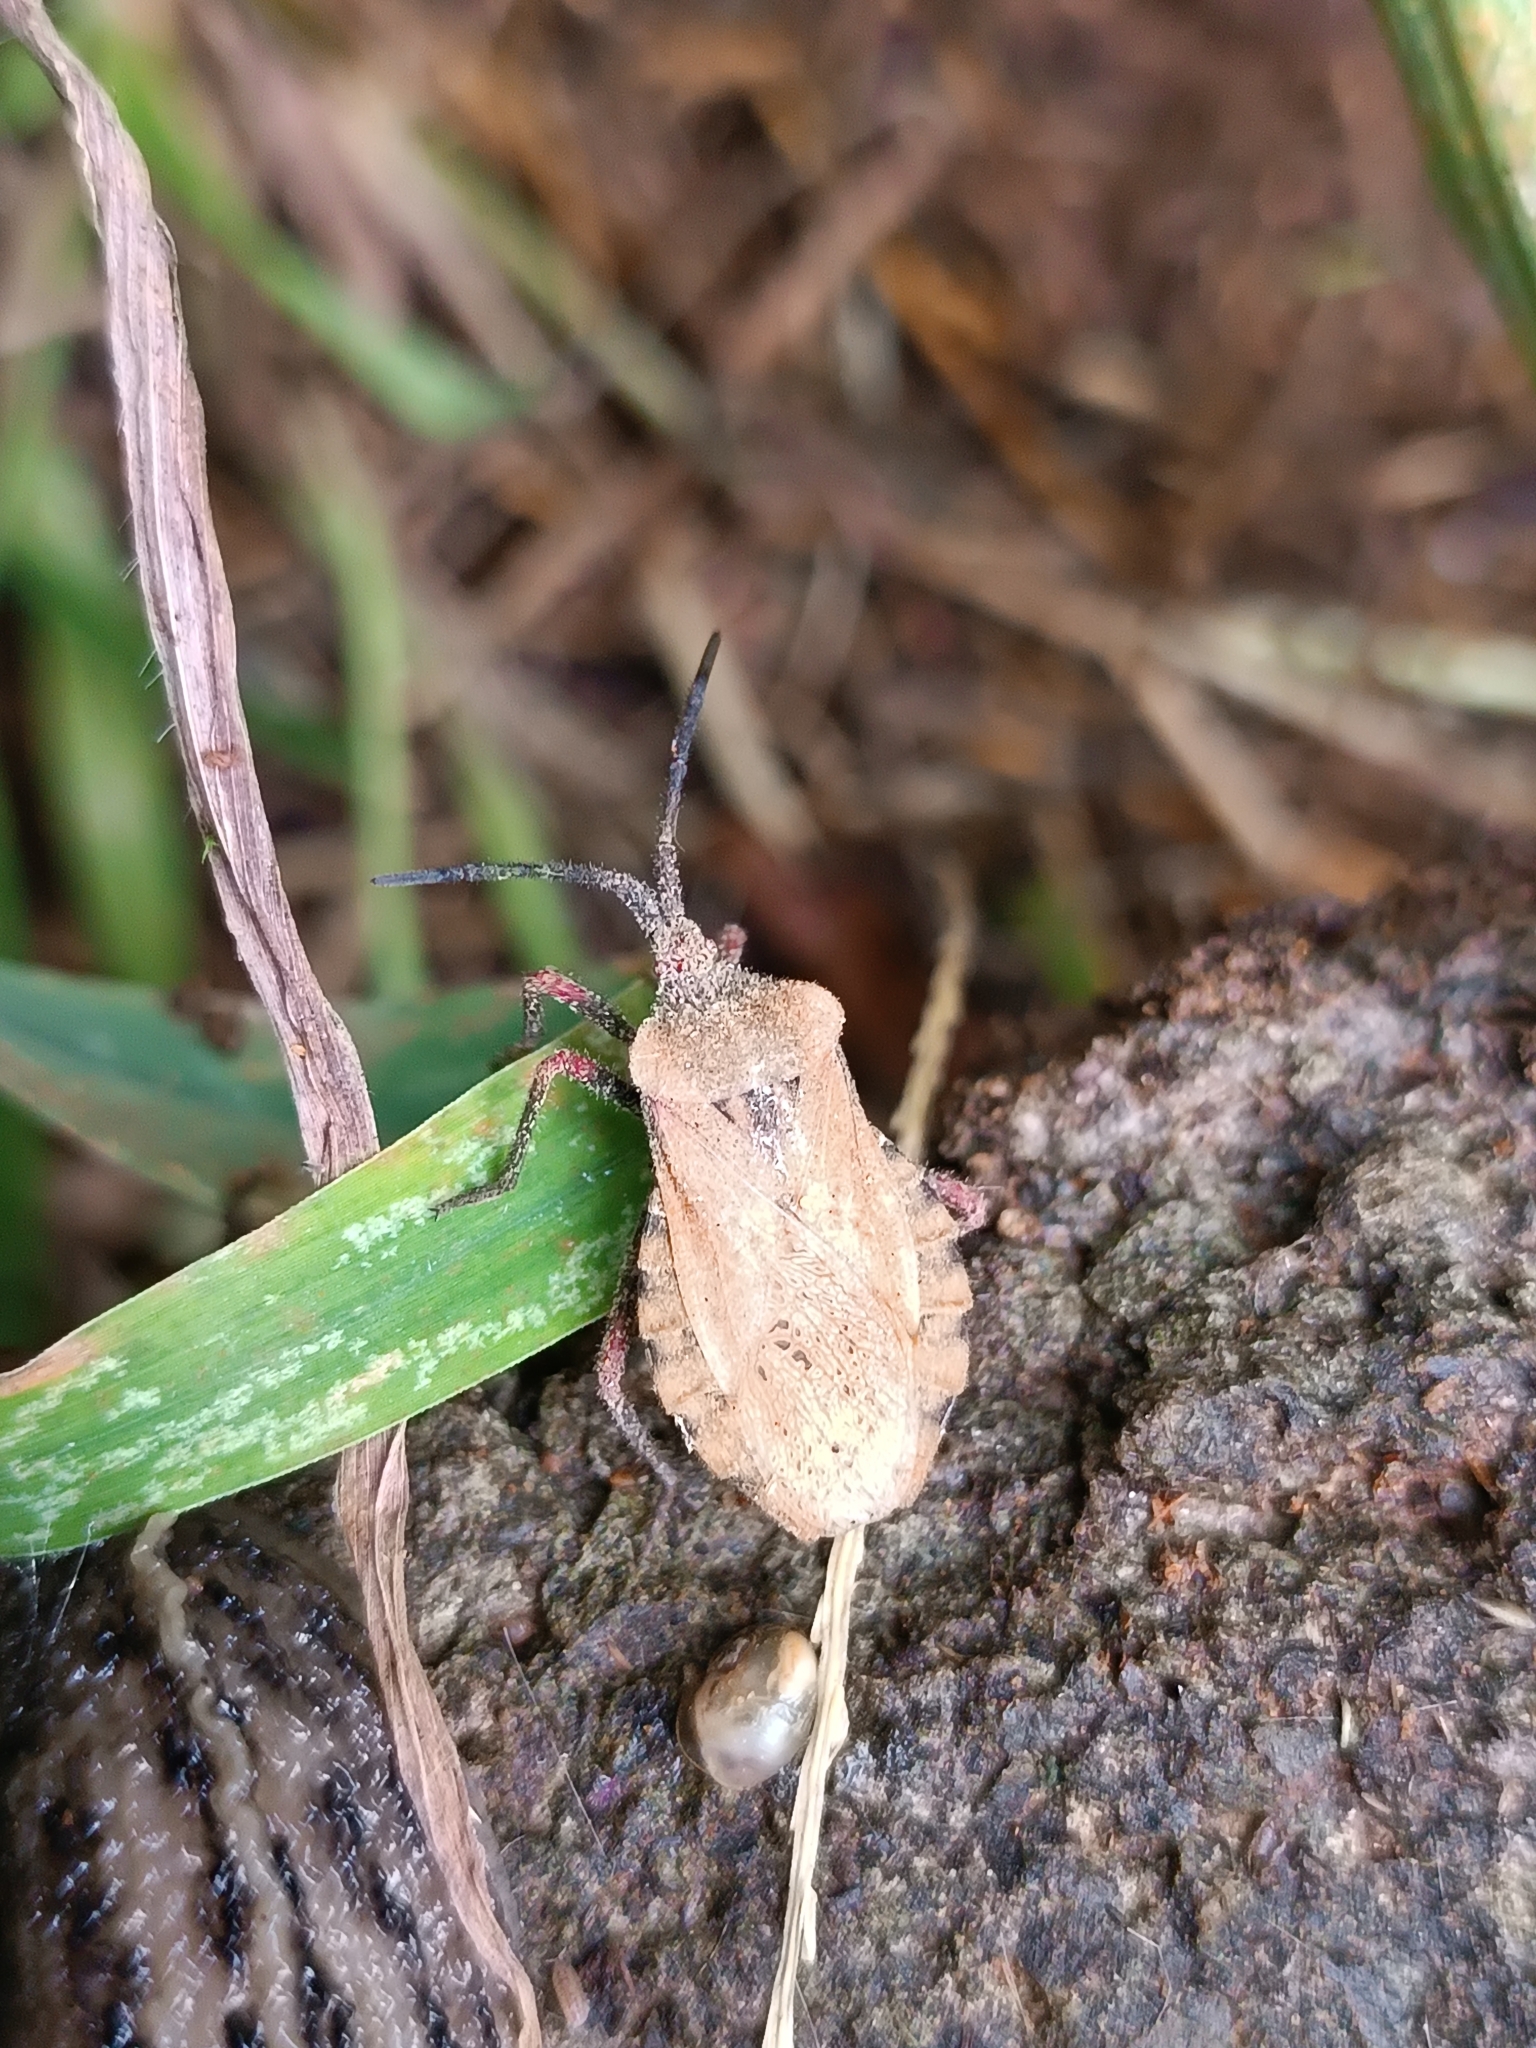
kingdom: Animalia
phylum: Arthropoda
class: Insecta
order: Hemiptera
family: Coreidae
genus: Spartocera
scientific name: Spartocera fusca
